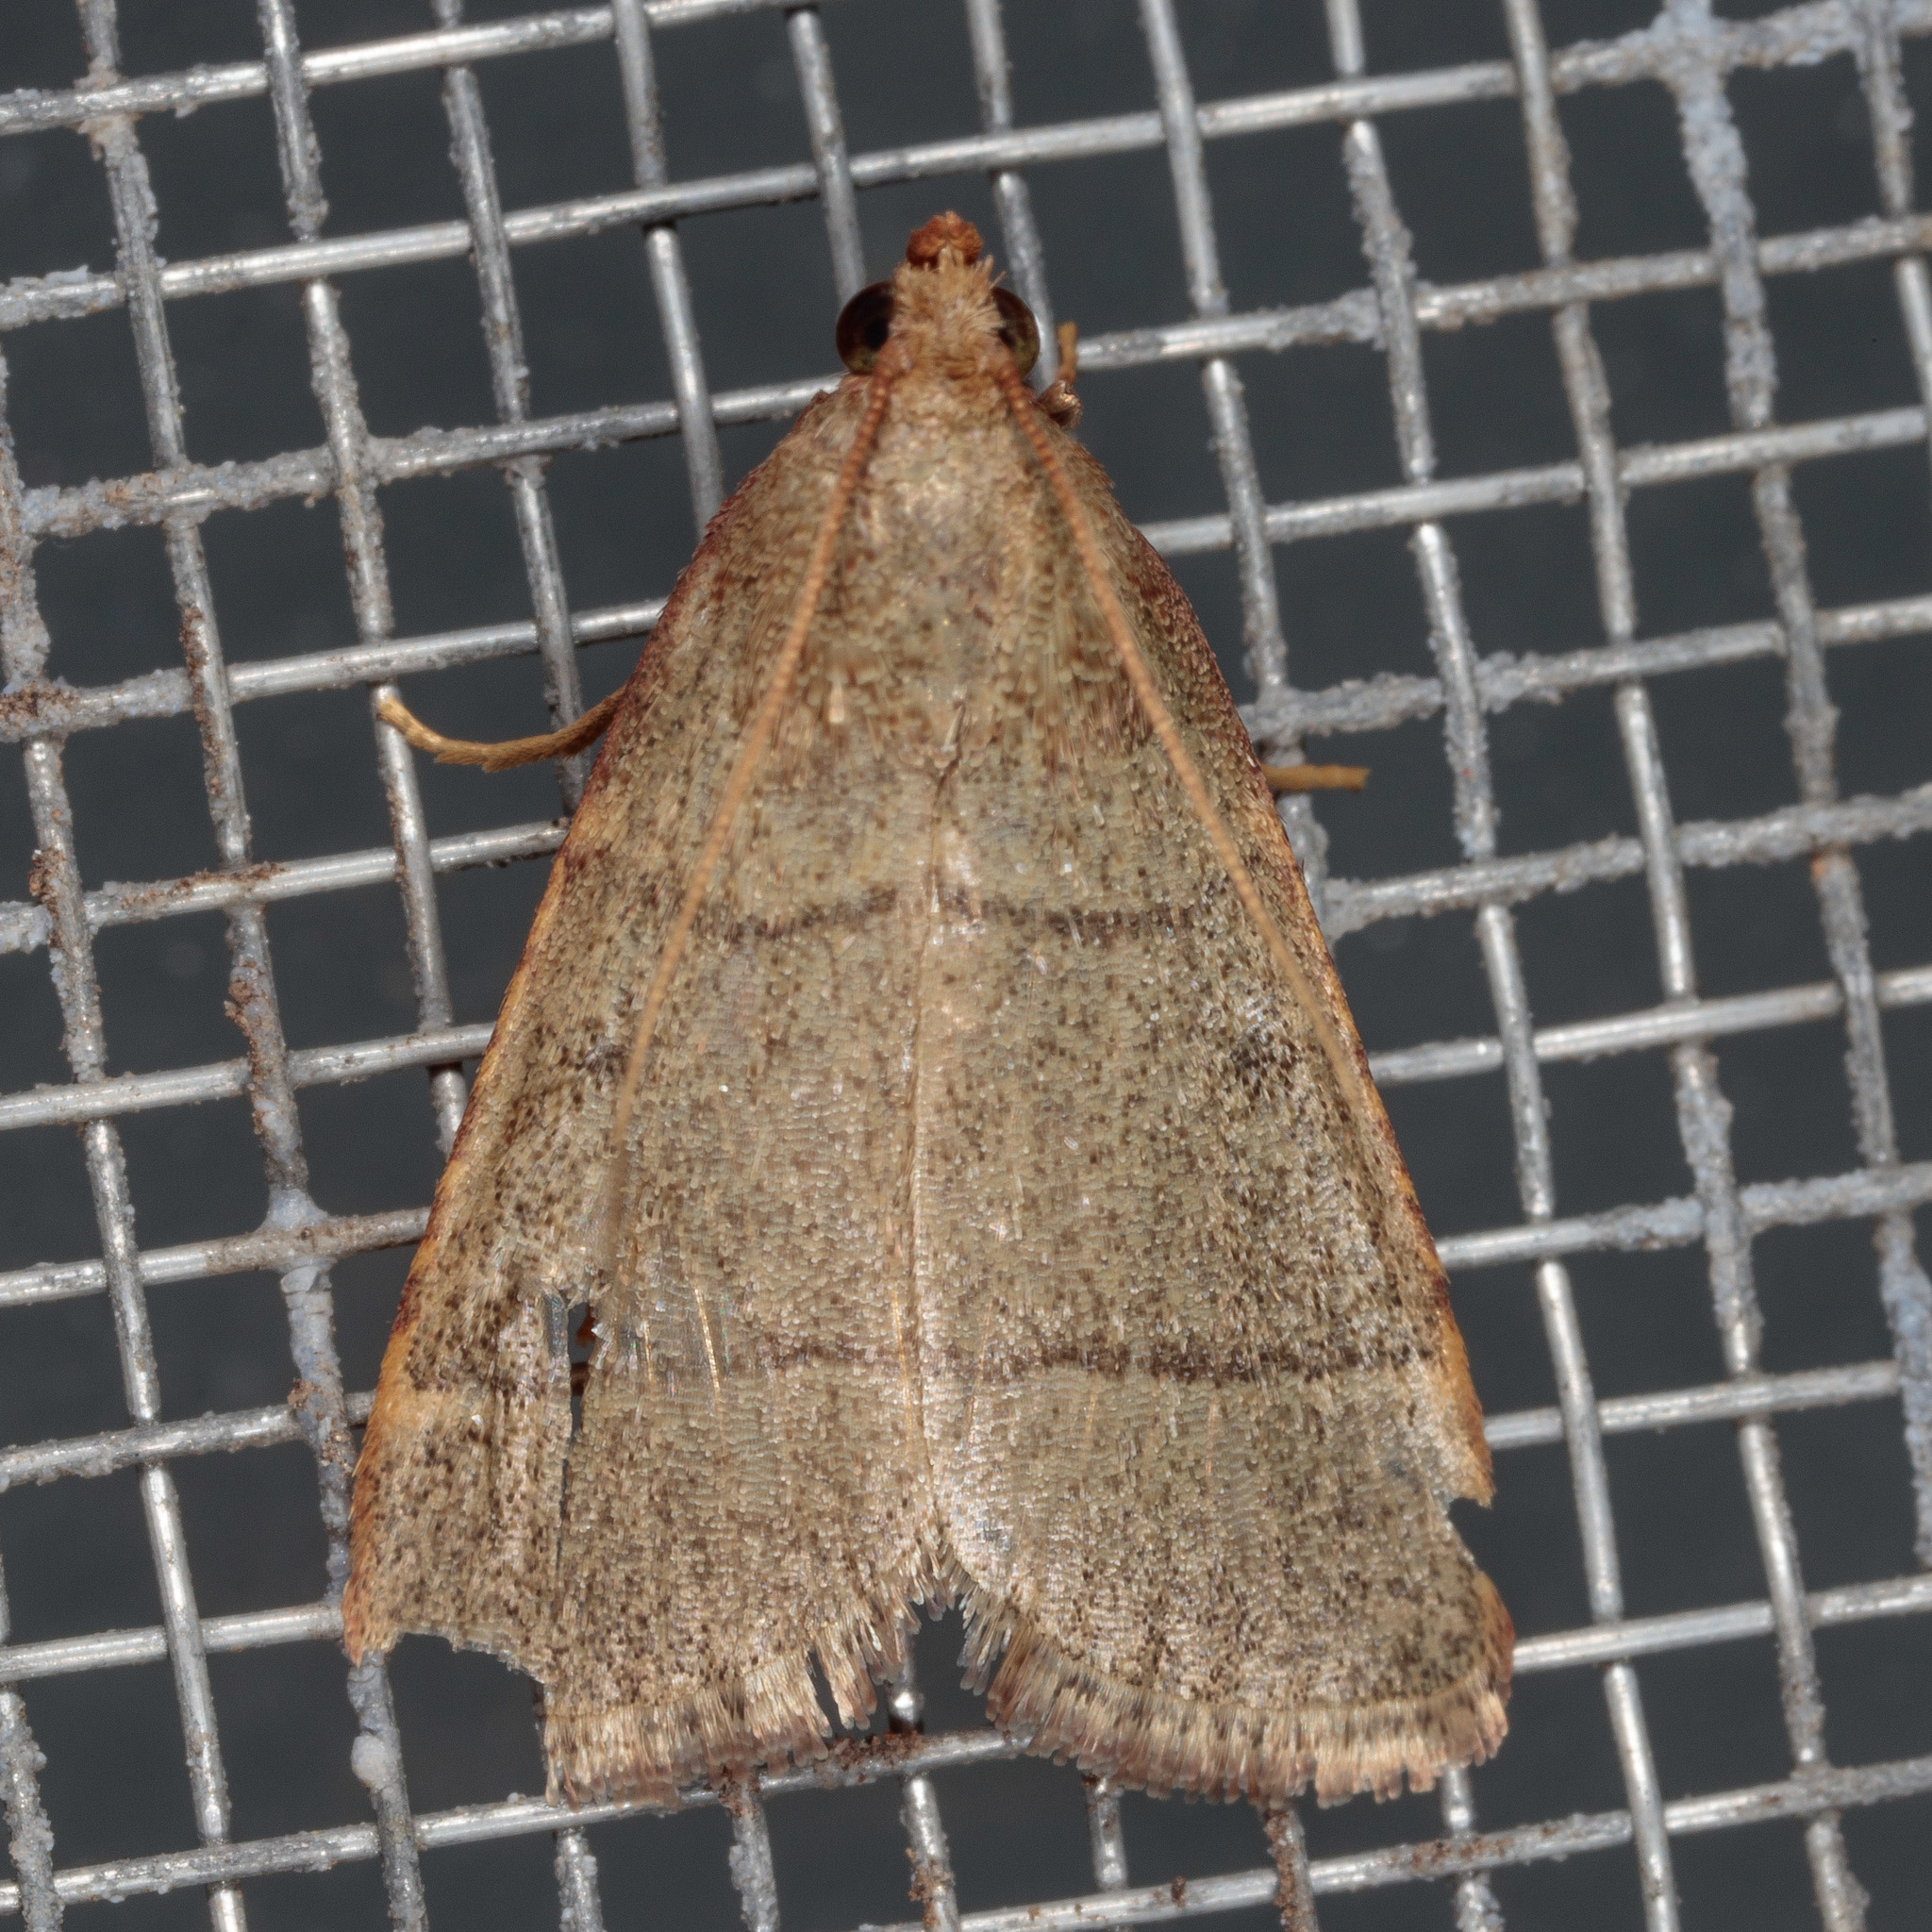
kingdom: Animalia
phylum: Arthropoda
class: Insecta
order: Lepidoptera
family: Pyralidae
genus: Hypsopygia
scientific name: Hypsopygia nostralis
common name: Southern hayworm moth
